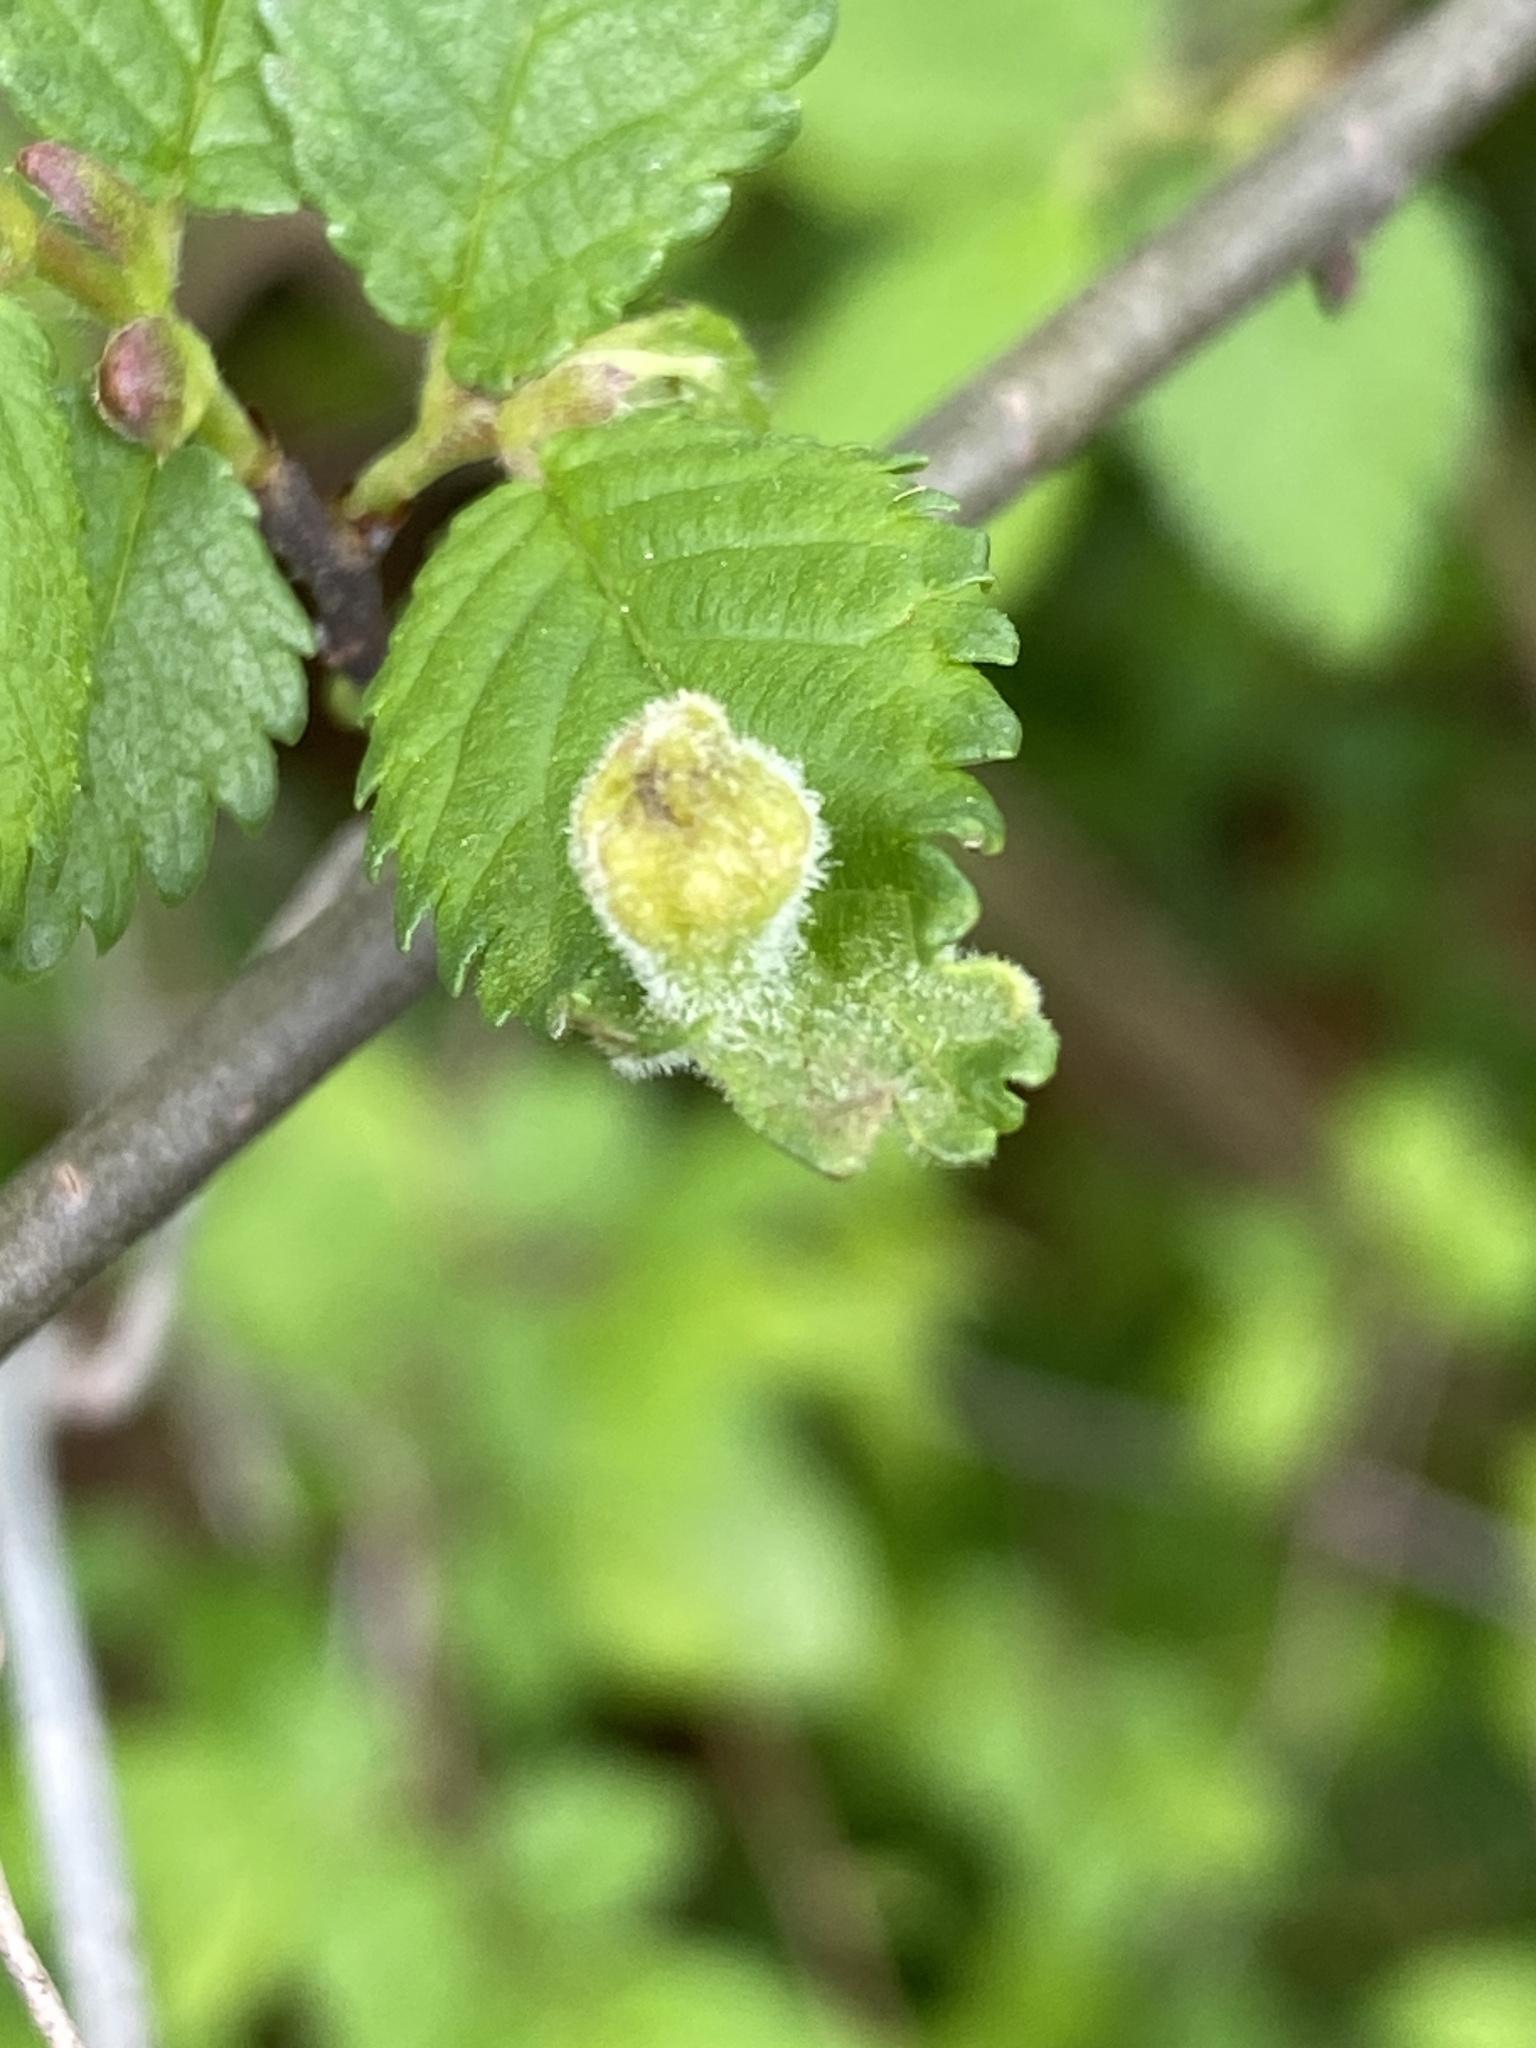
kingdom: Animalia
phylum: Arthropoda
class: Insecta
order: Hemiptera
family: Aphididae
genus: Tetraneura
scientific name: Tetraneura nigriabdominalis
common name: Aphid
